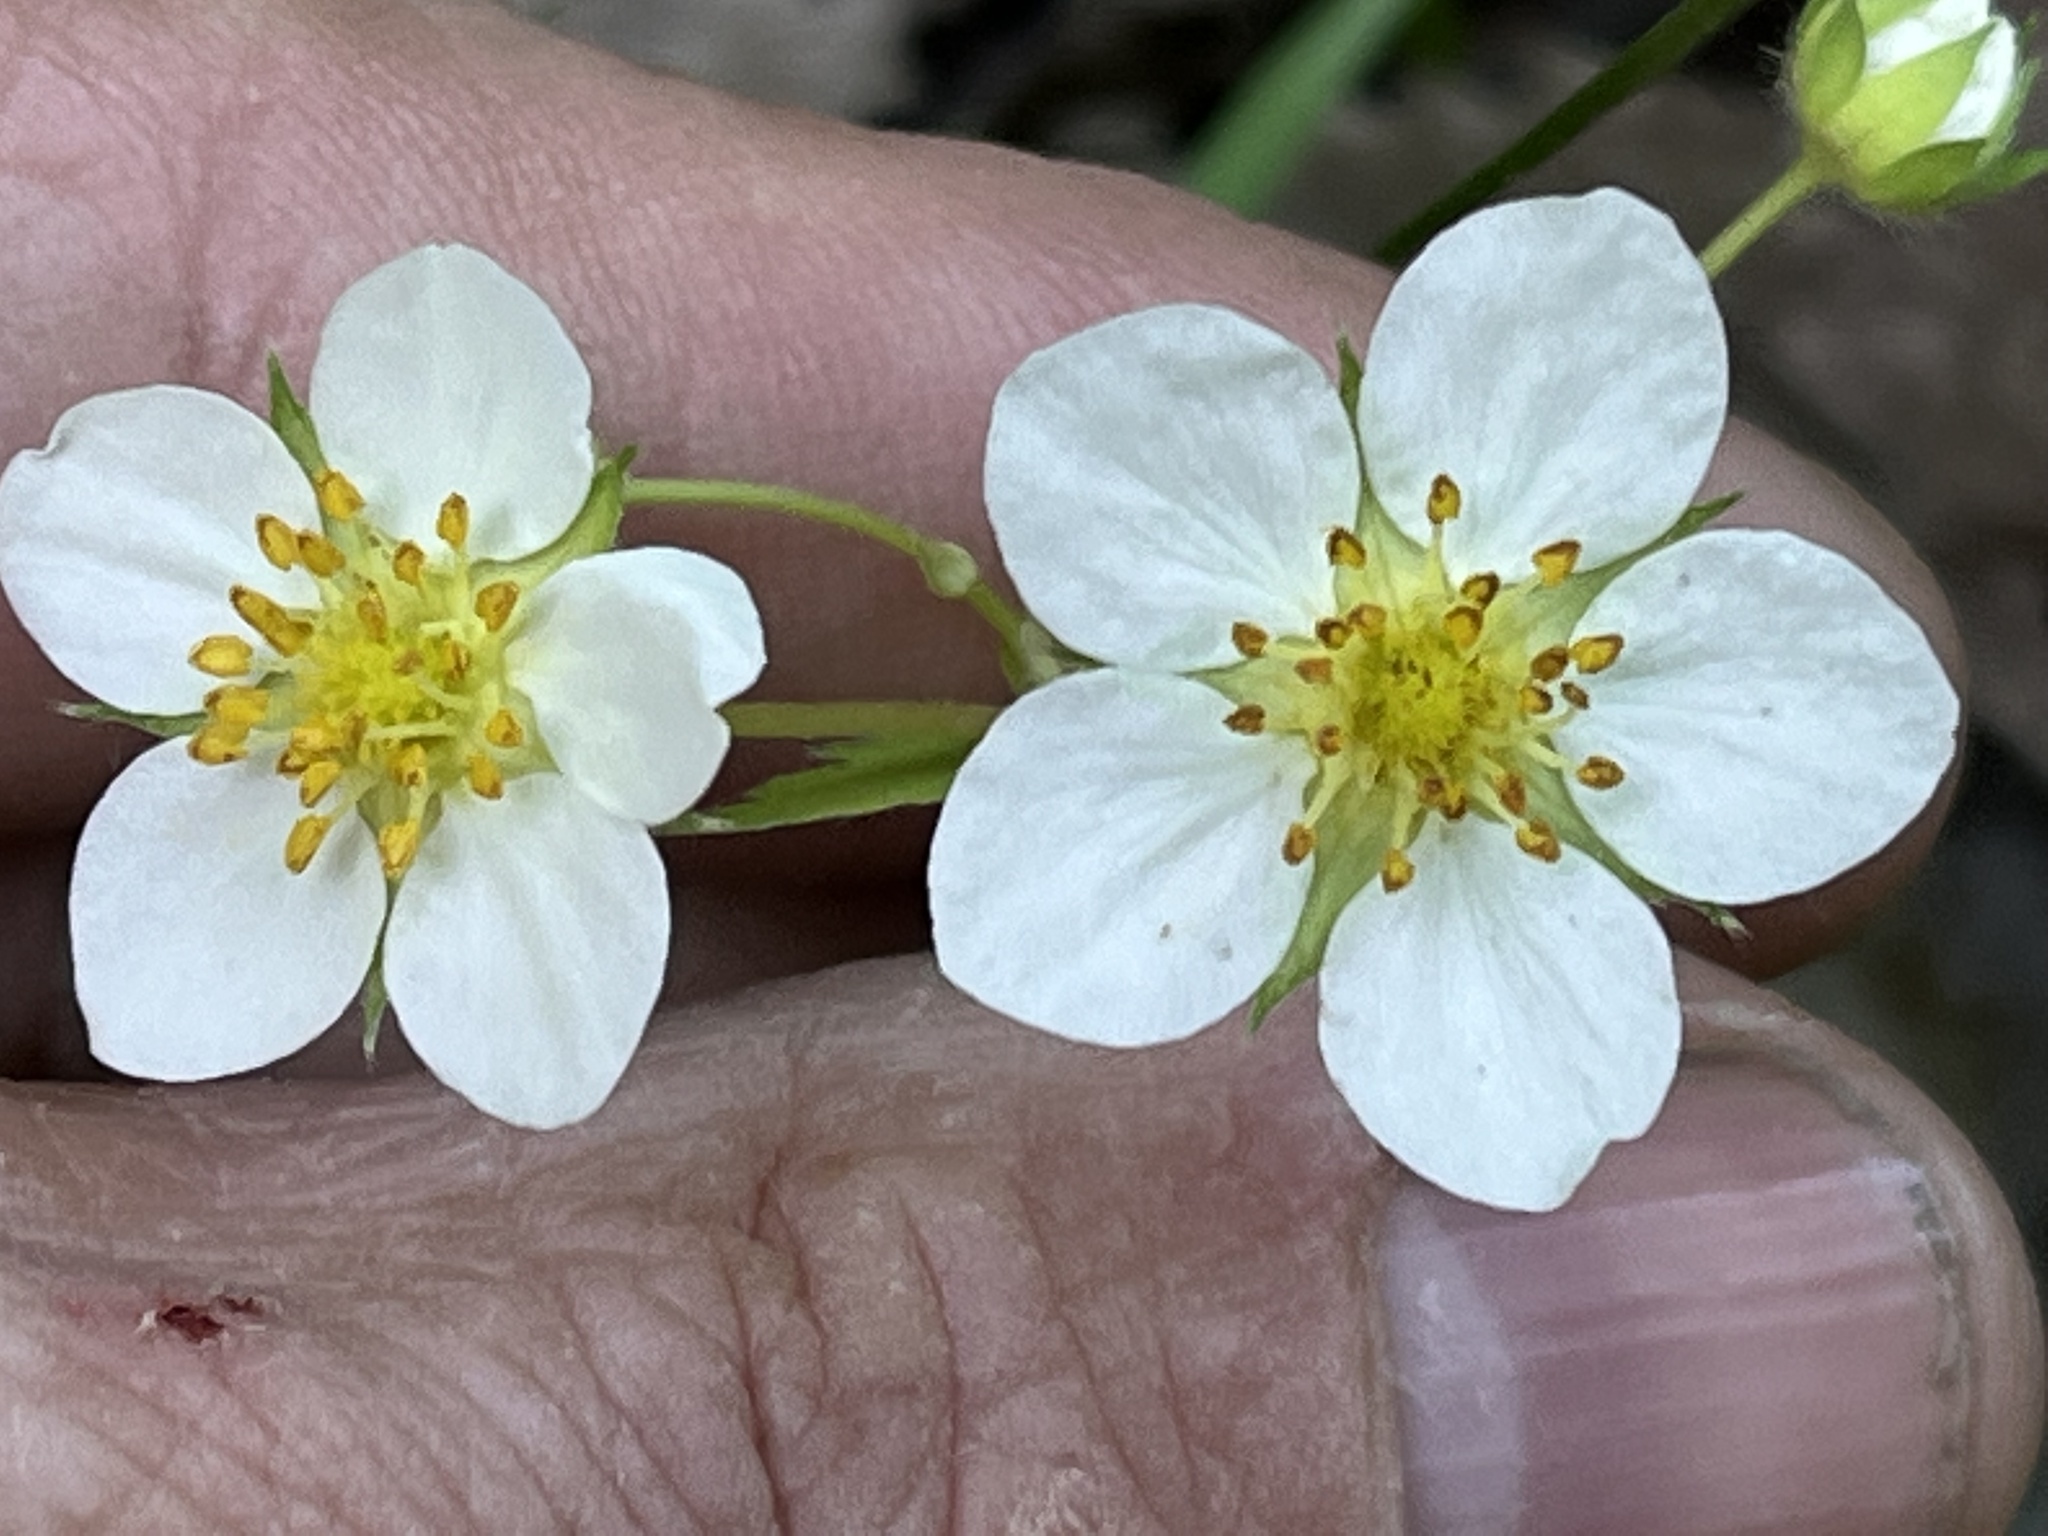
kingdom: Plantae
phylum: Tracheophyta
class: Magnoliopsida
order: Rosales
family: Rosaceae
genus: Fragaria
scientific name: Fragaria virginiana
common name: Thickleaved wild strawberry
